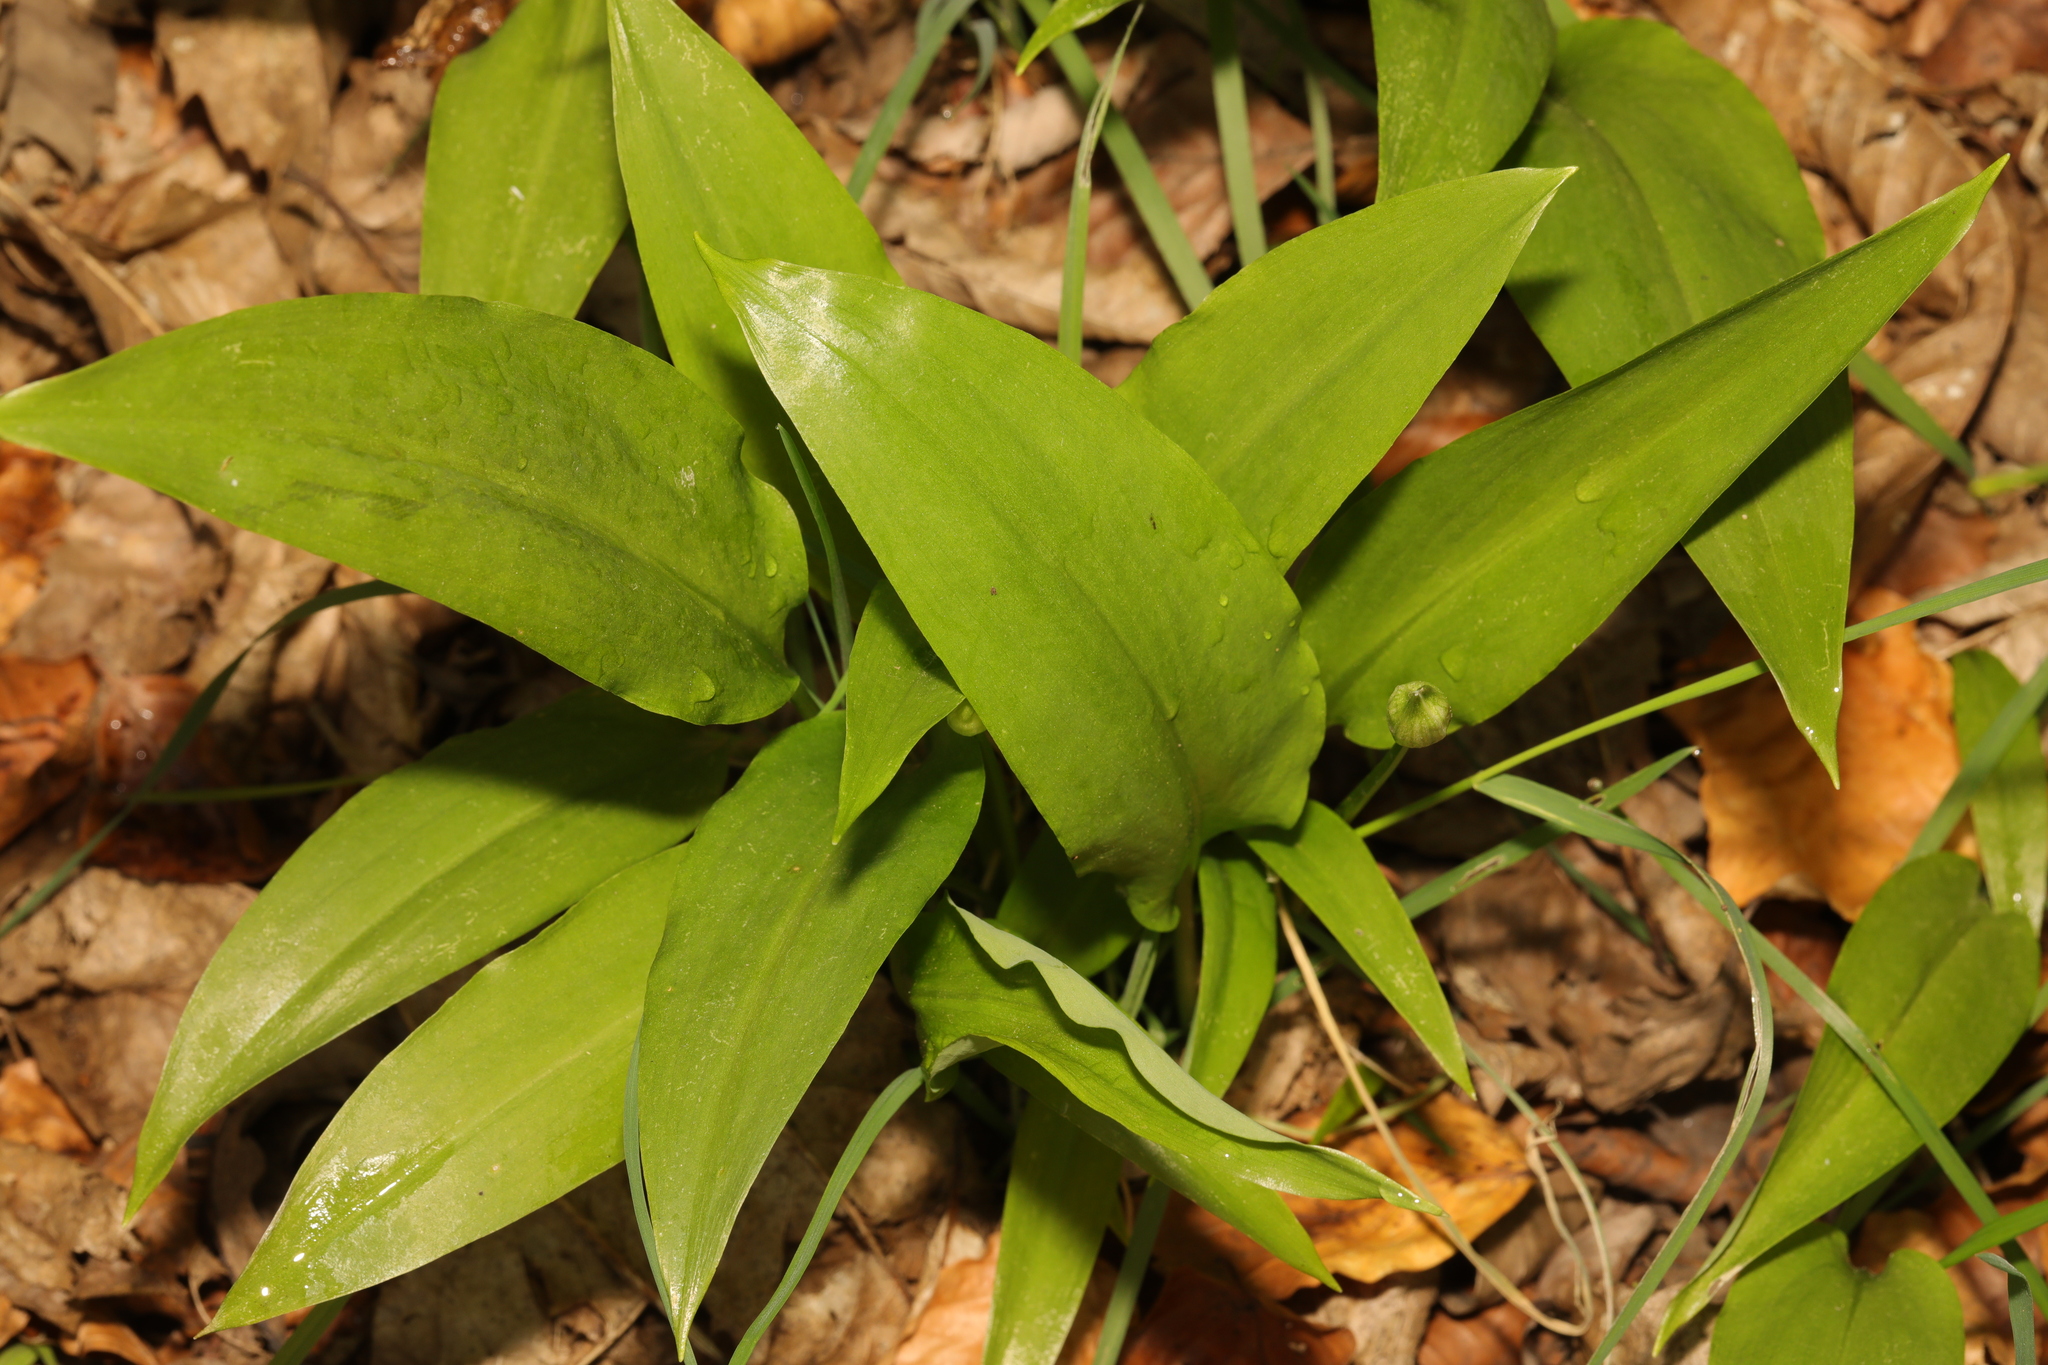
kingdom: Plantae
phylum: Tracheophyta
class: Liliopsida
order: Asparagales
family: Amaryllidaceae
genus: Allium
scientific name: Allium ursinum
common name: Ramsons
